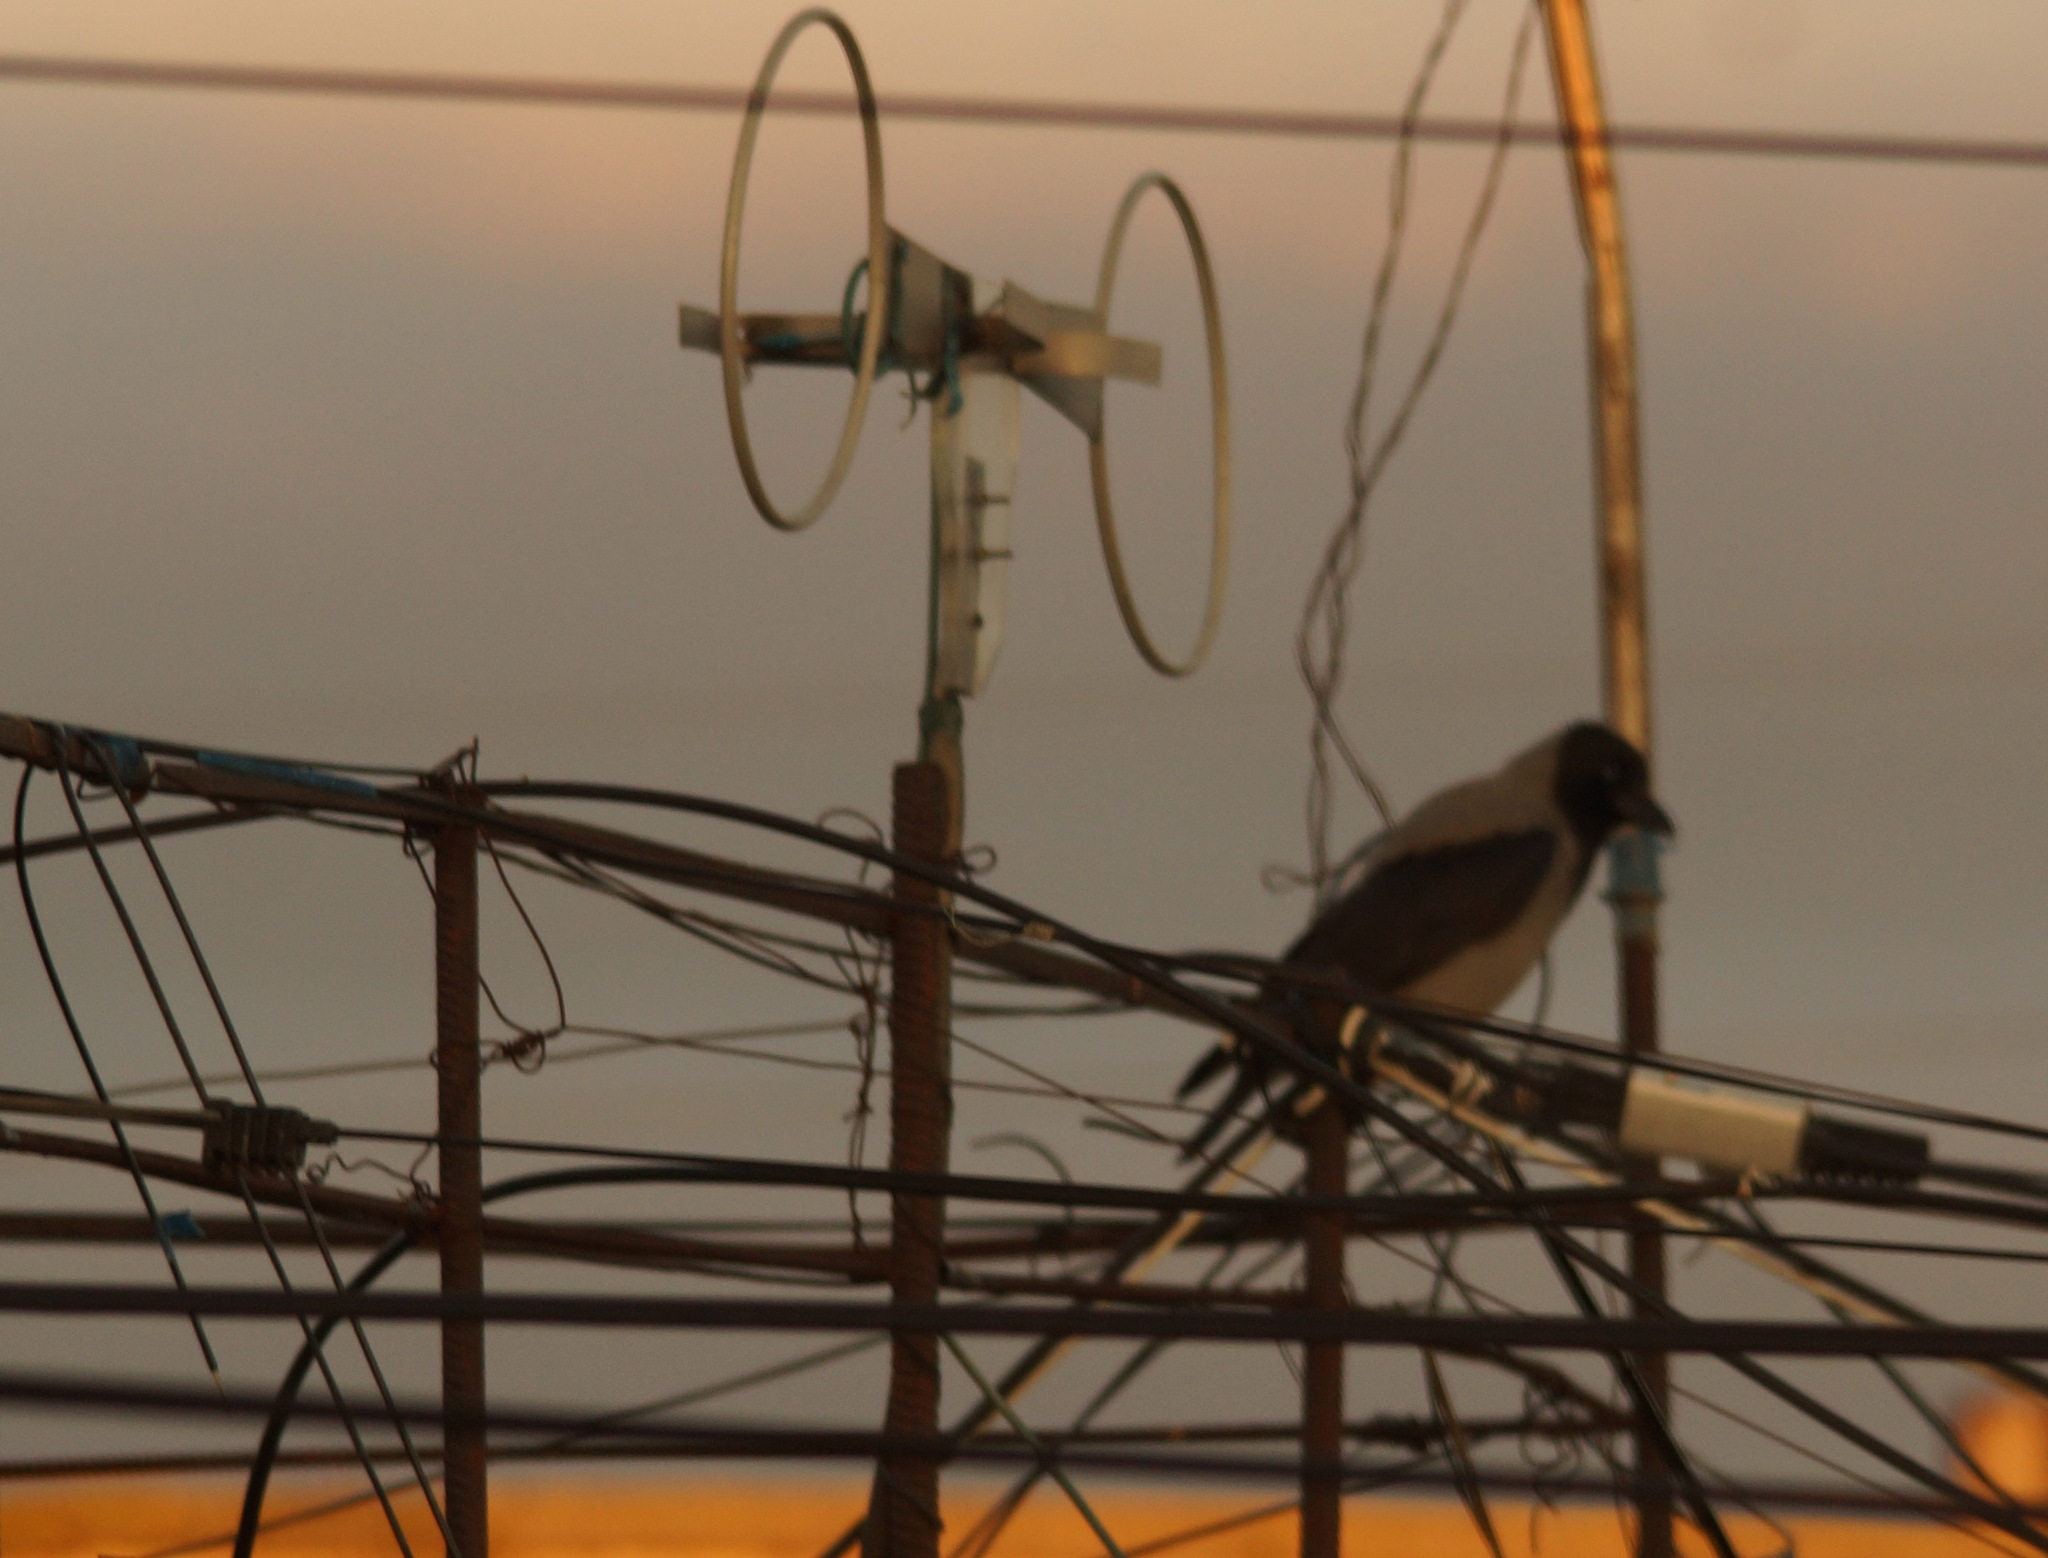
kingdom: Animalia
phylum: Chordata
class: Aves
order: Passeriformes
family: Corvidae
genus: Corvus
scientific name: Corvus cornix
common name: Hooded crow
